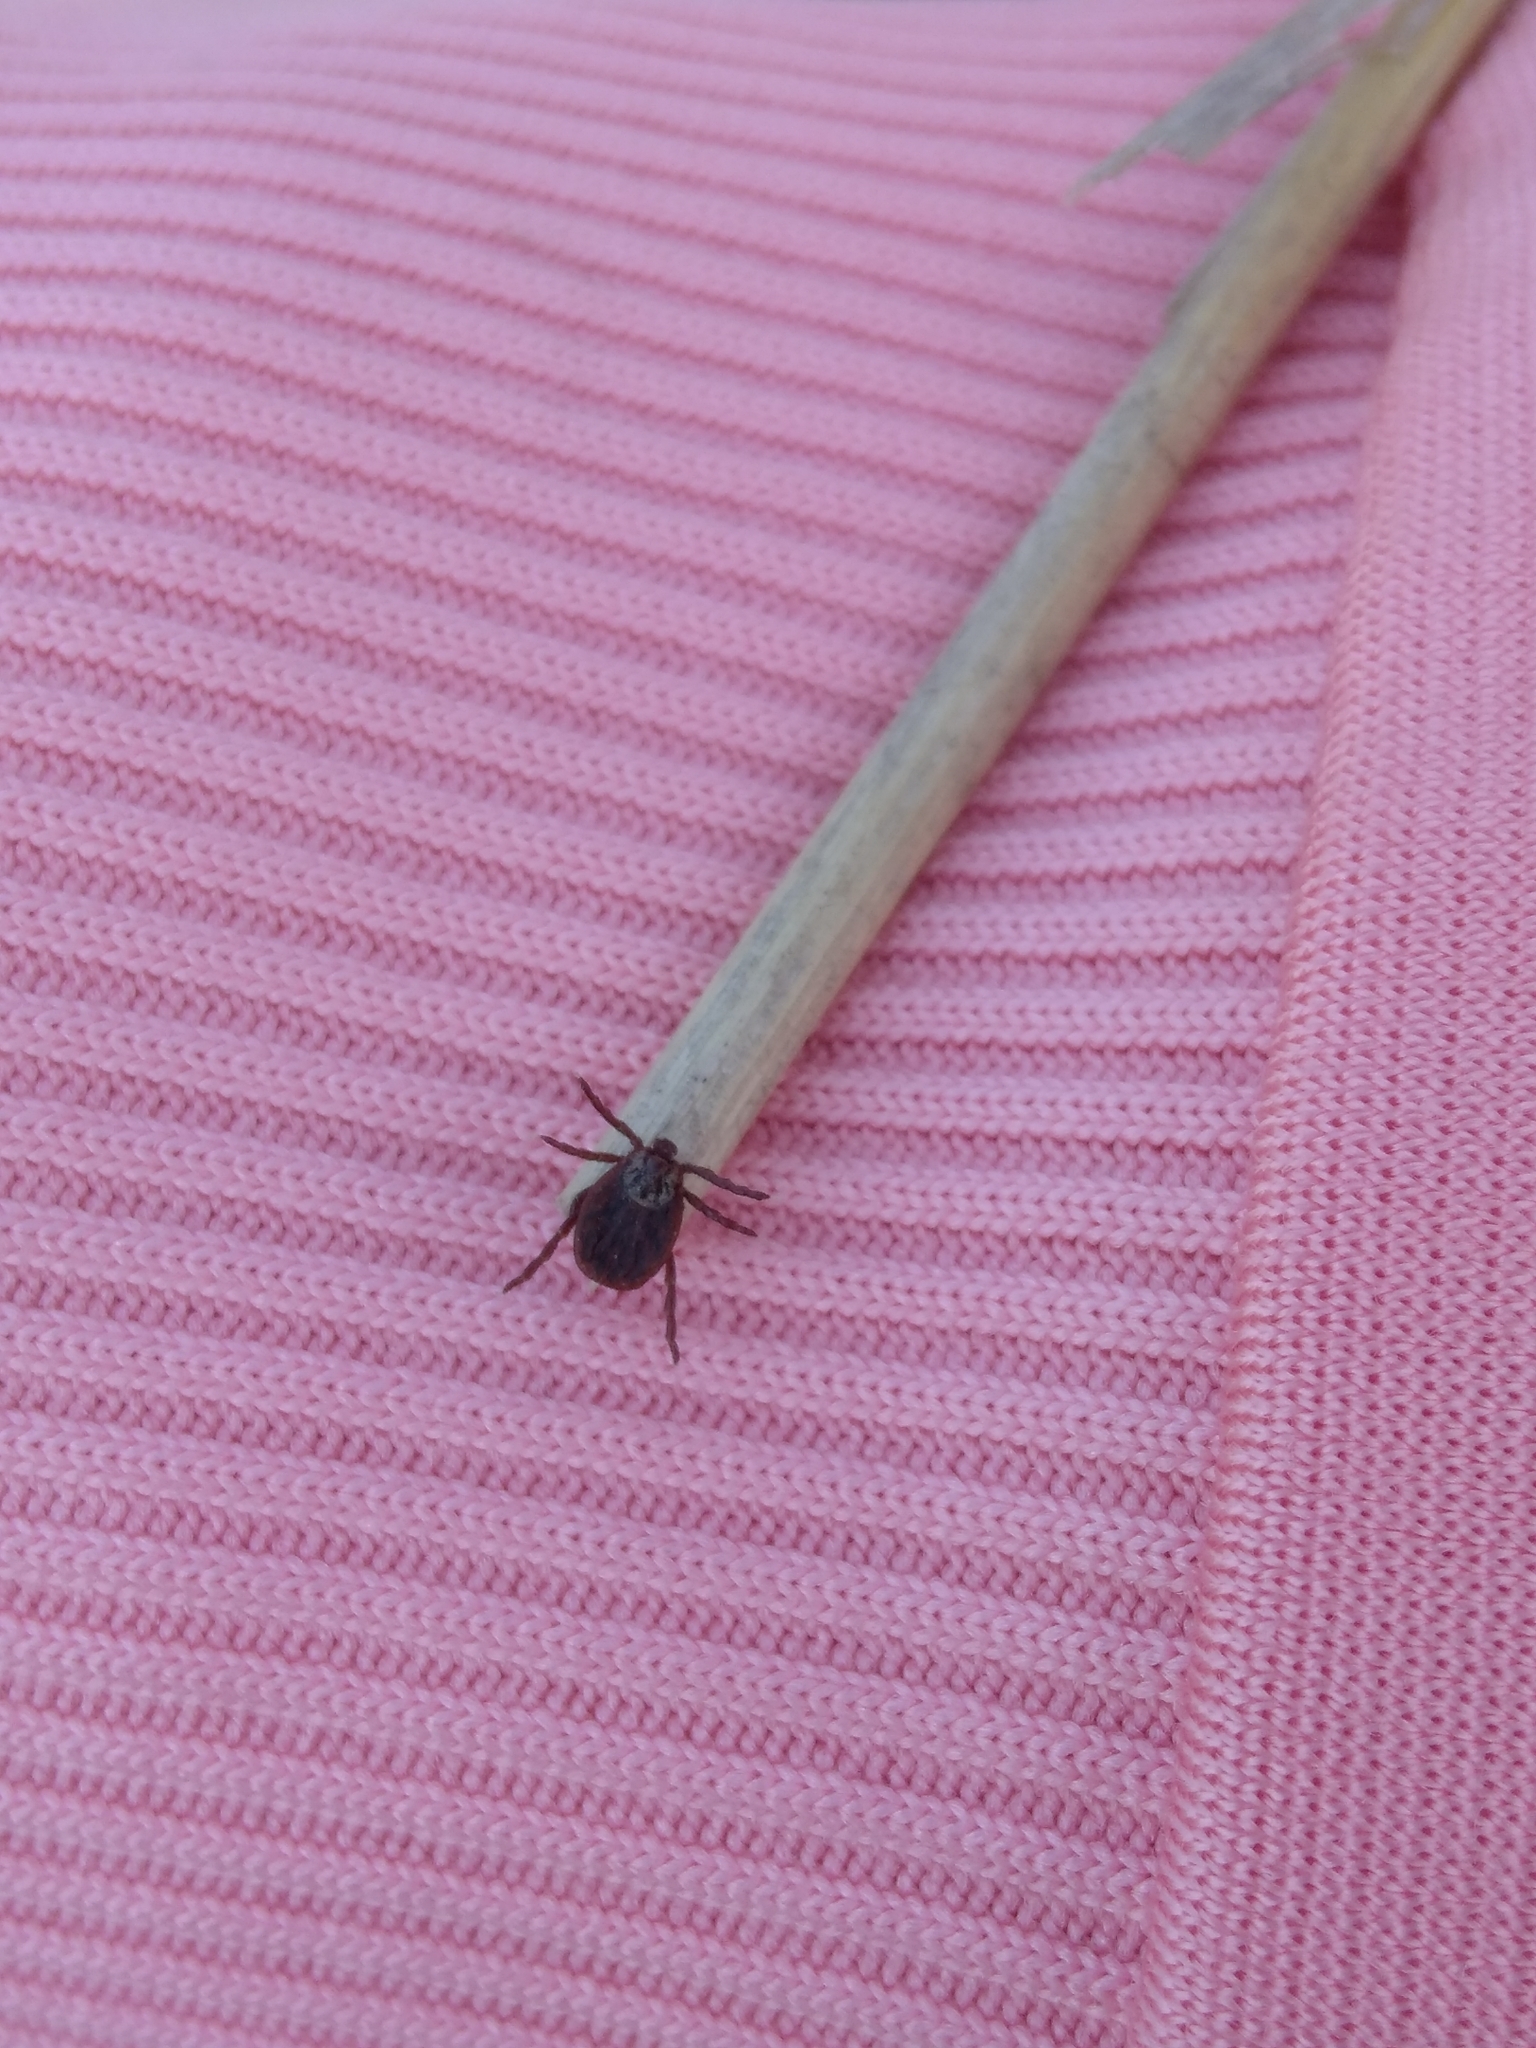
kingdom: Animalia
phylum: Arthropoda
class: Arachnida
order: Ixodida
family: Ixodidae
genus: Dermacentor
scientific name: Dermacentor reticulatus
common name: Ornate cow tick
